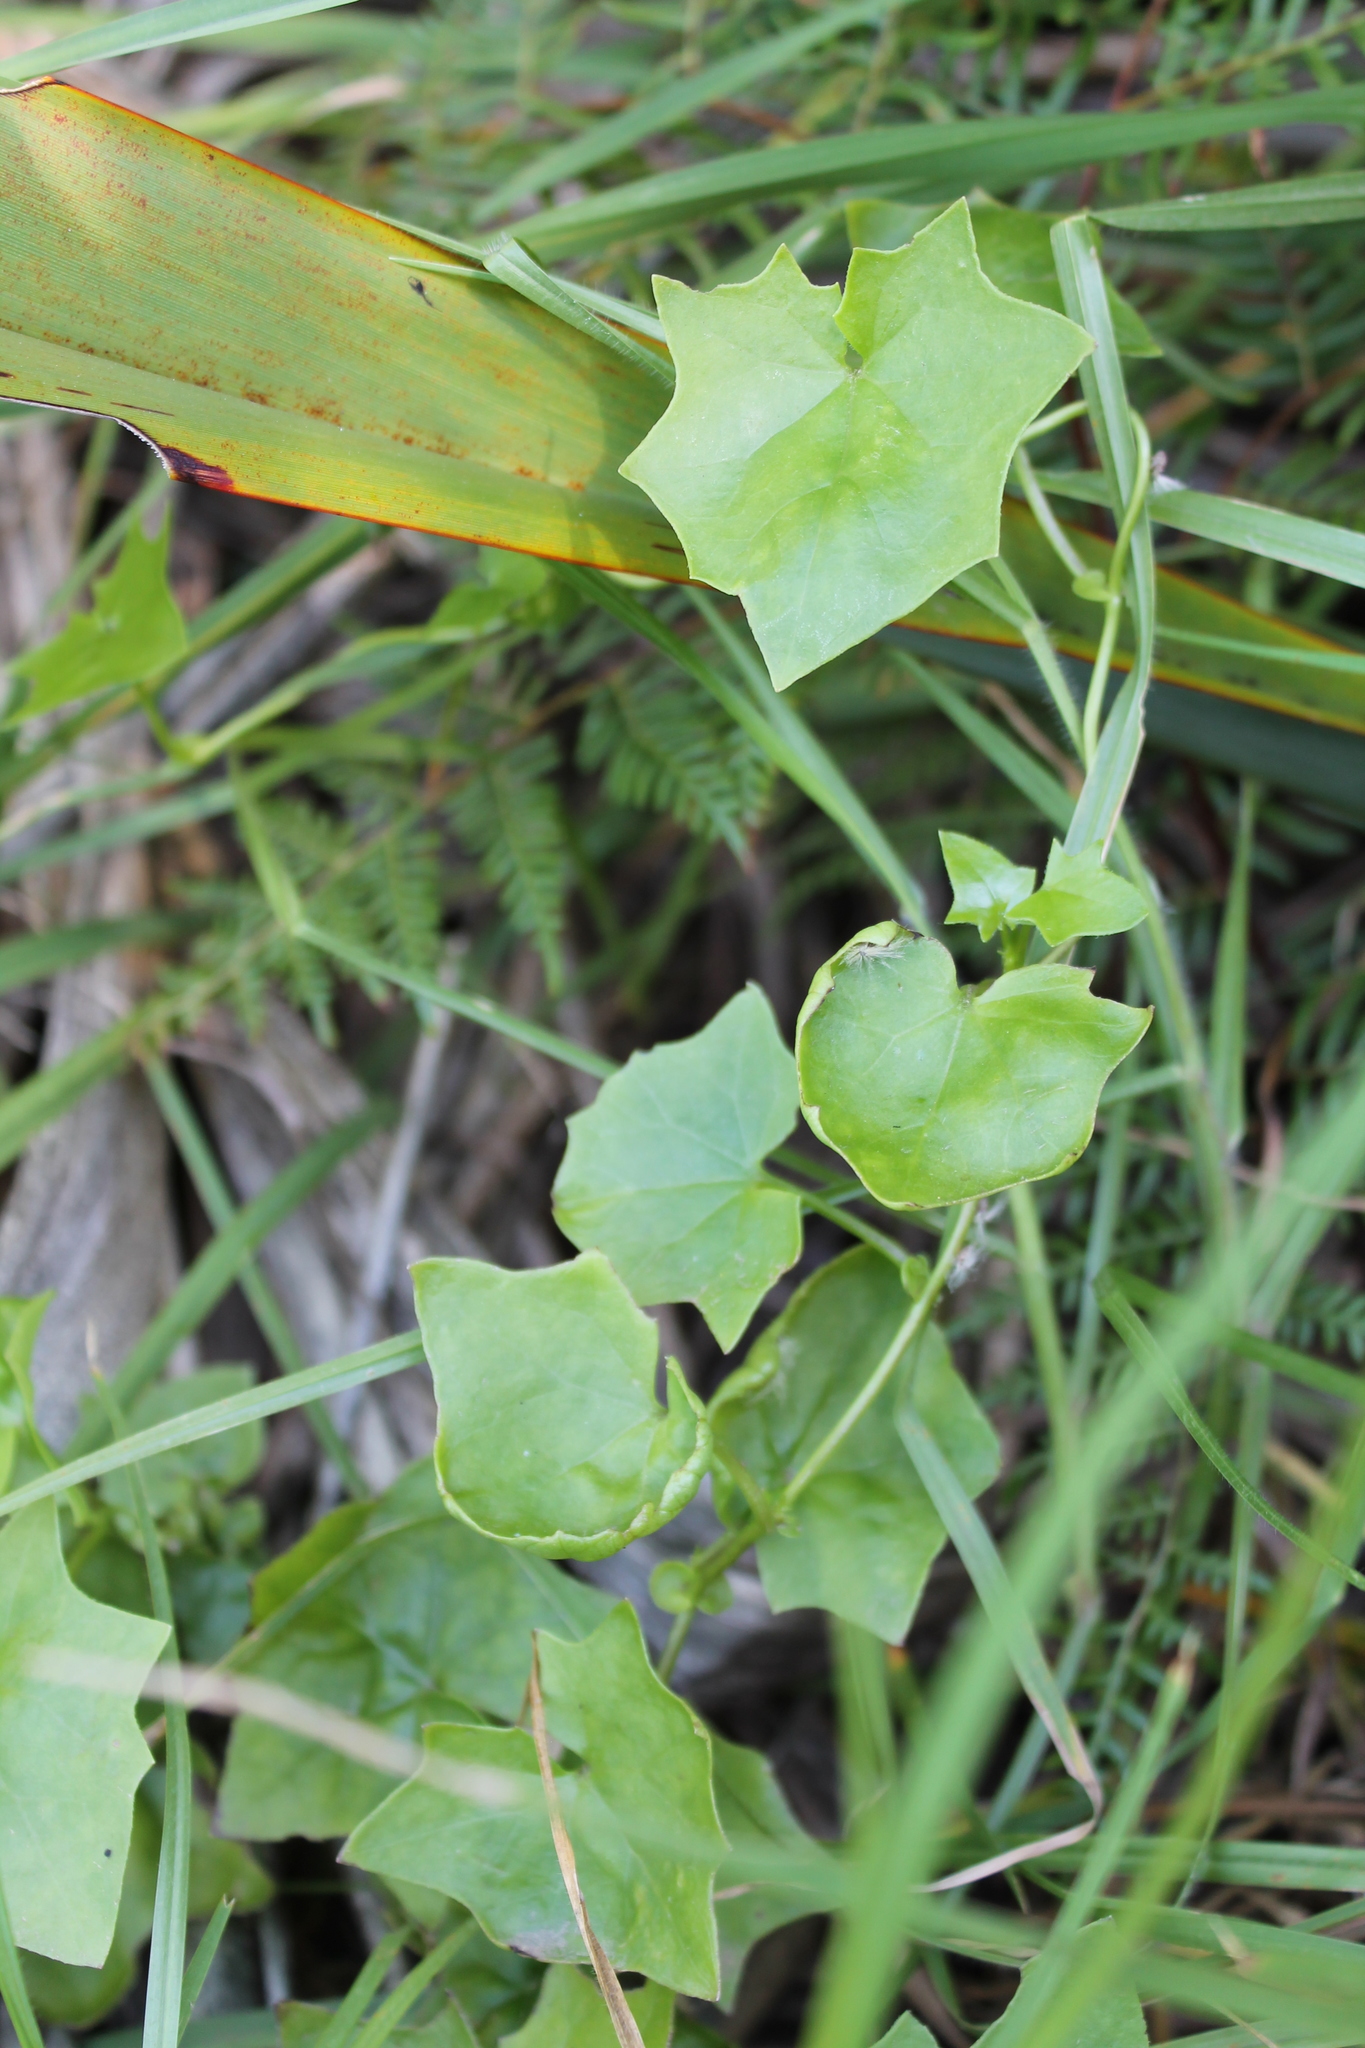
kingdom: Plantae
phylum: Tracheophyta
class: Magnoliopsida
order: Asterales
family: Asteraceae
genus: Delairea
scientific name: Delairea odorata
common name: Cape-ivy
